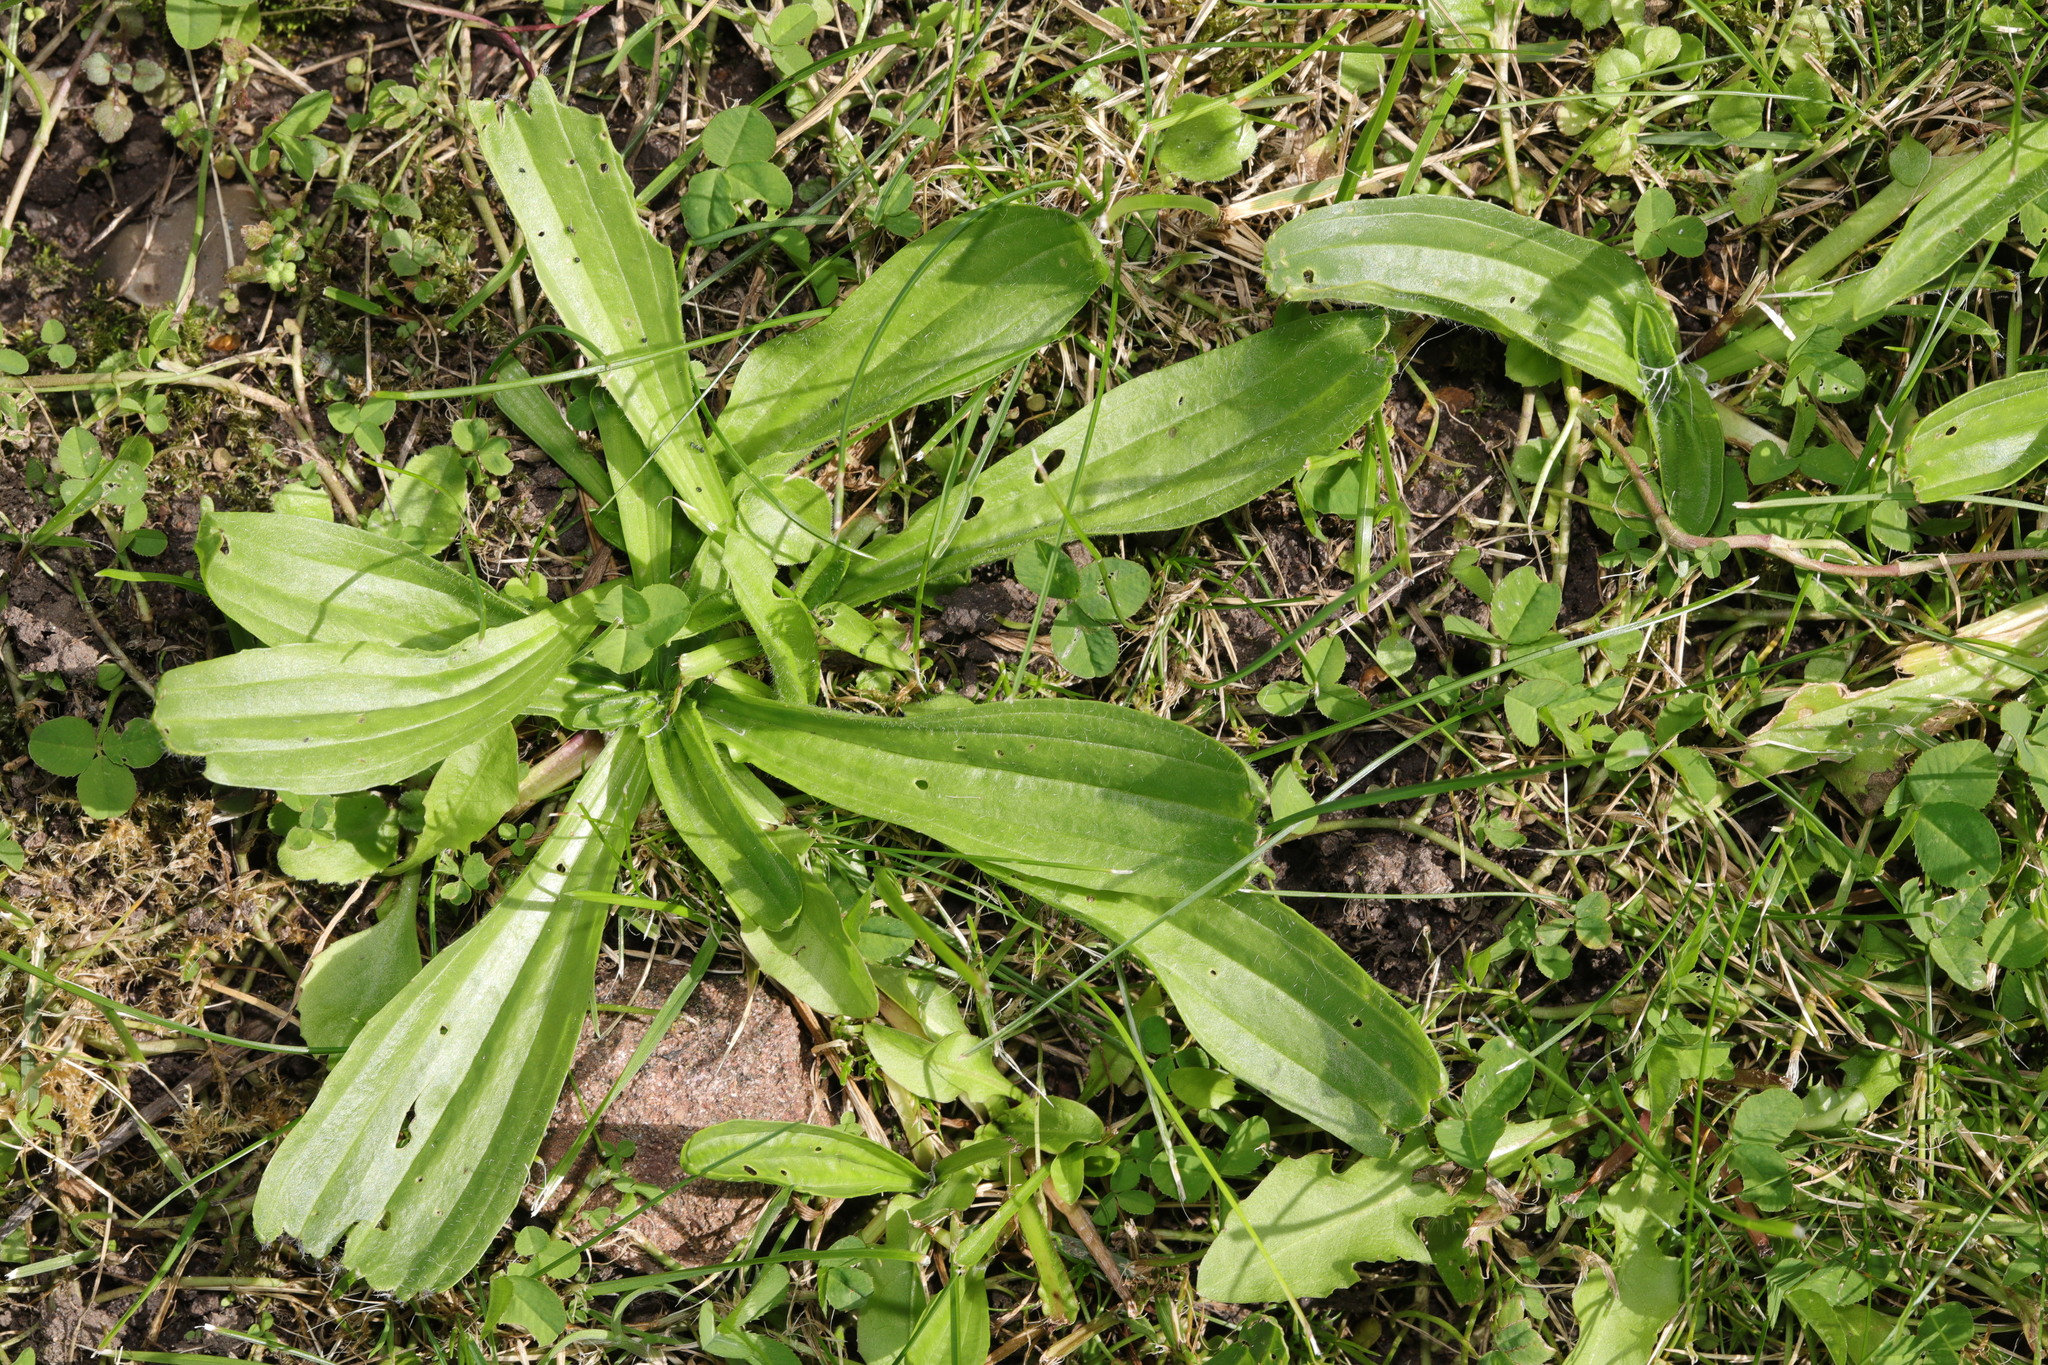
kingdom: Plantae
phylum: Tracheophyta
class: Magnoliopsida
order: Lamiales
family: Plantaginaceae
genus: Plantago
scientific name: Plantago lanceolata
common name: Ribwort plantain
